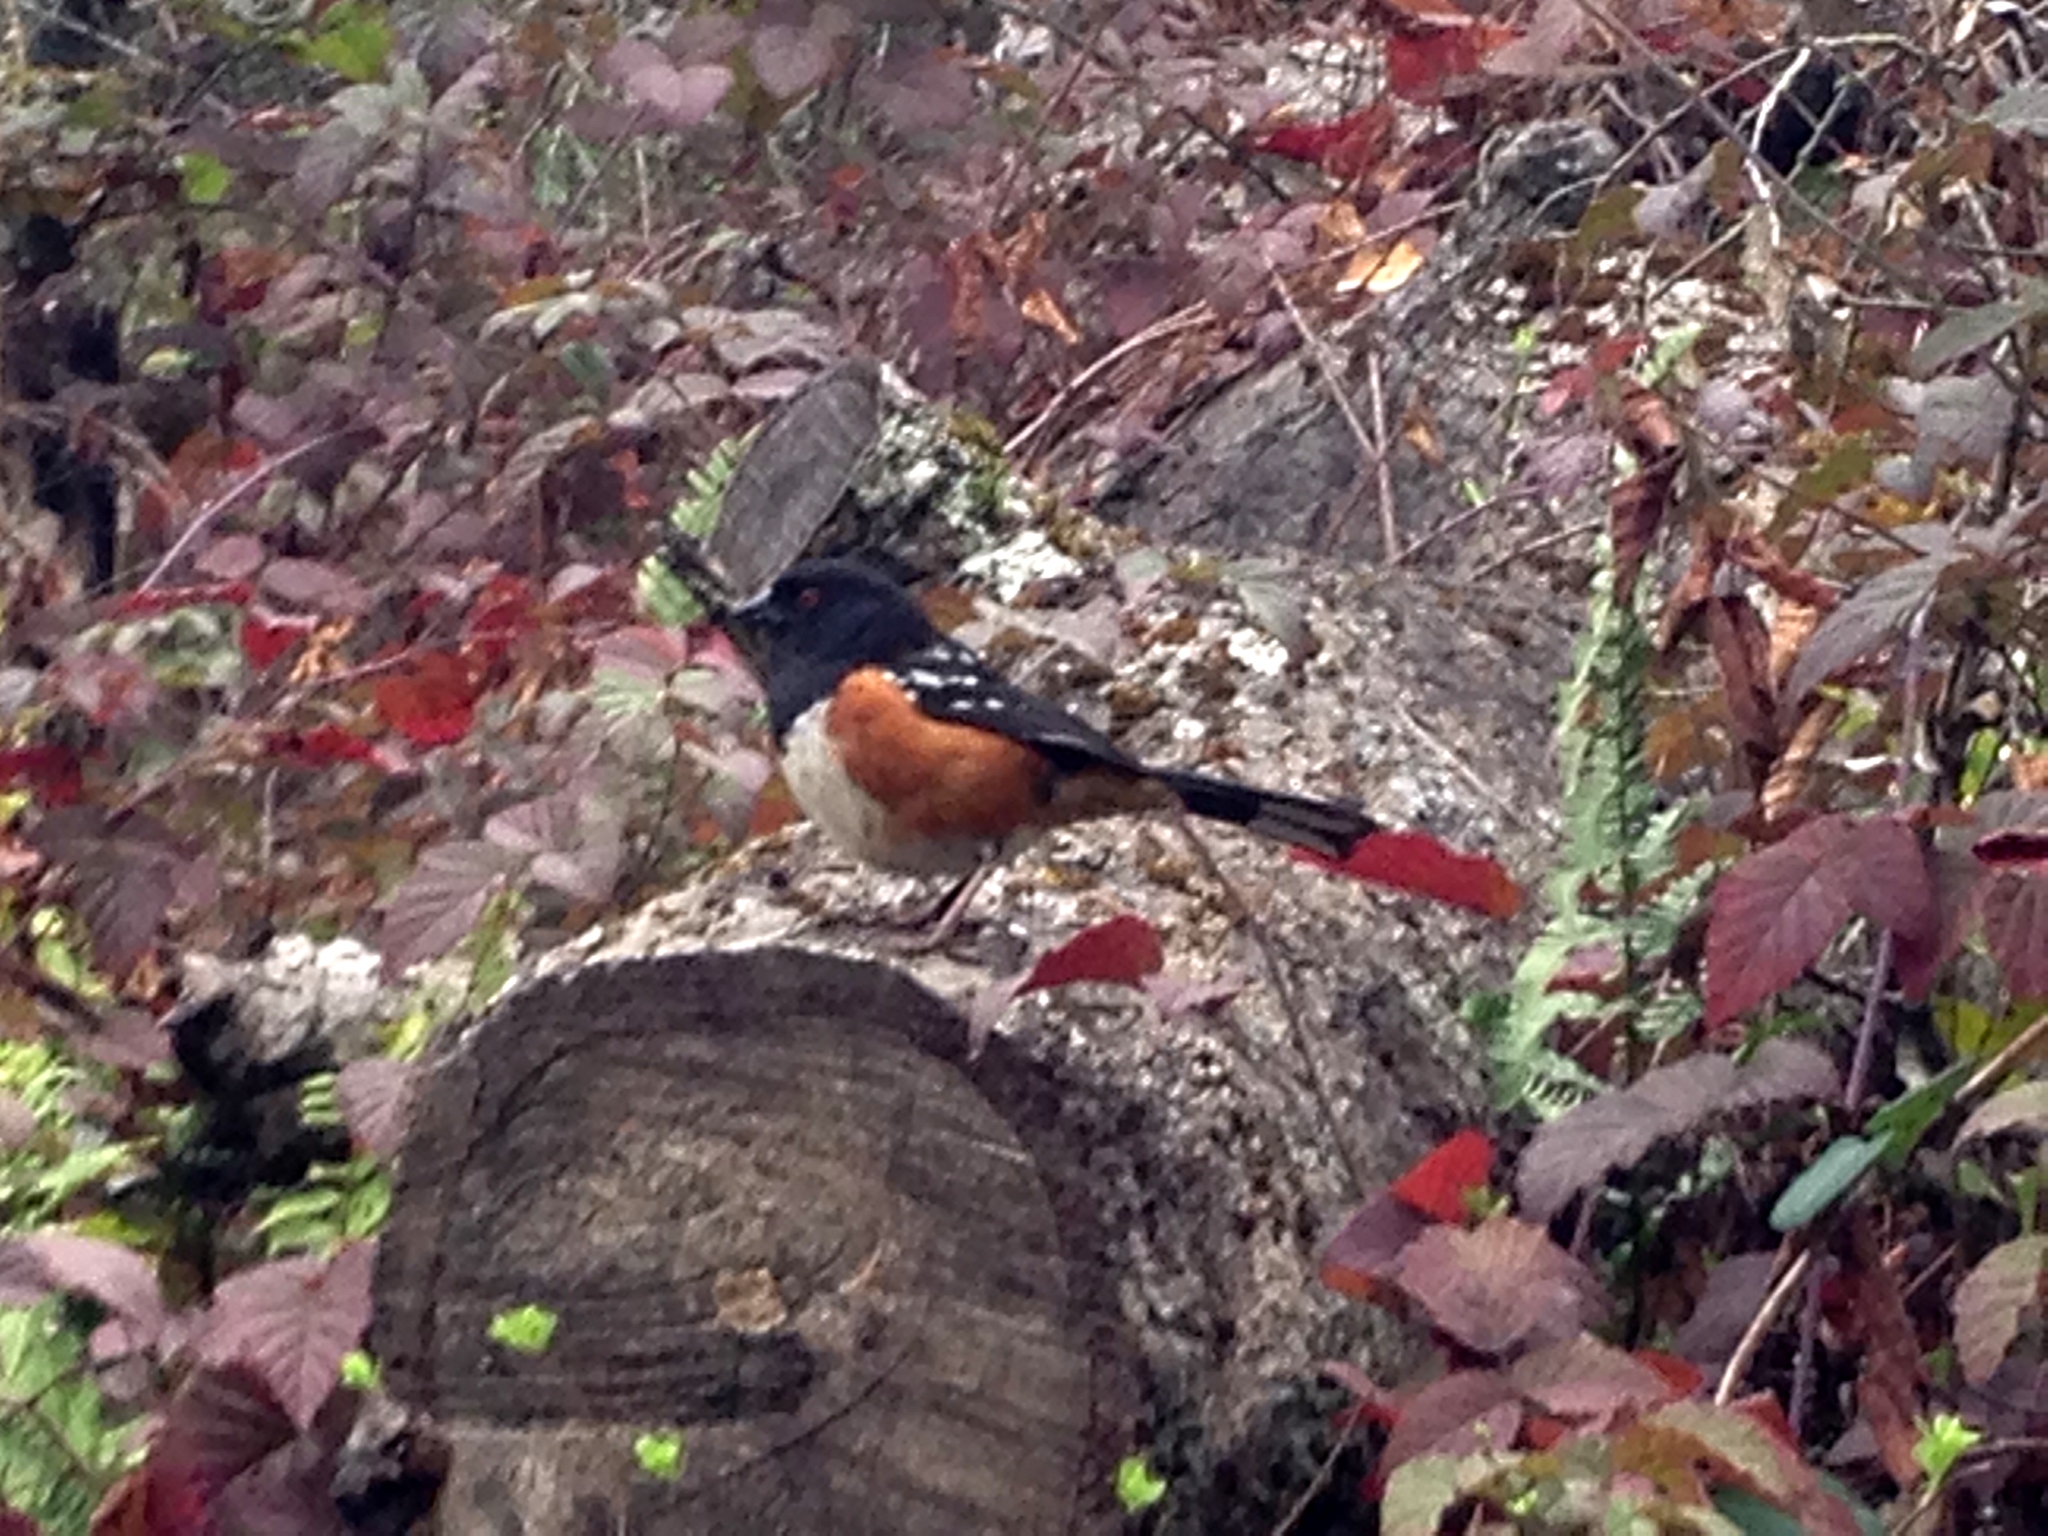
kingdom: Animalia
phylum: Chordata
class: Aves
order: Passeriformes
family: Passerellidae
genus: Pipilo
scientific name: Pipilo maculatus
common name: Spotted towhee
